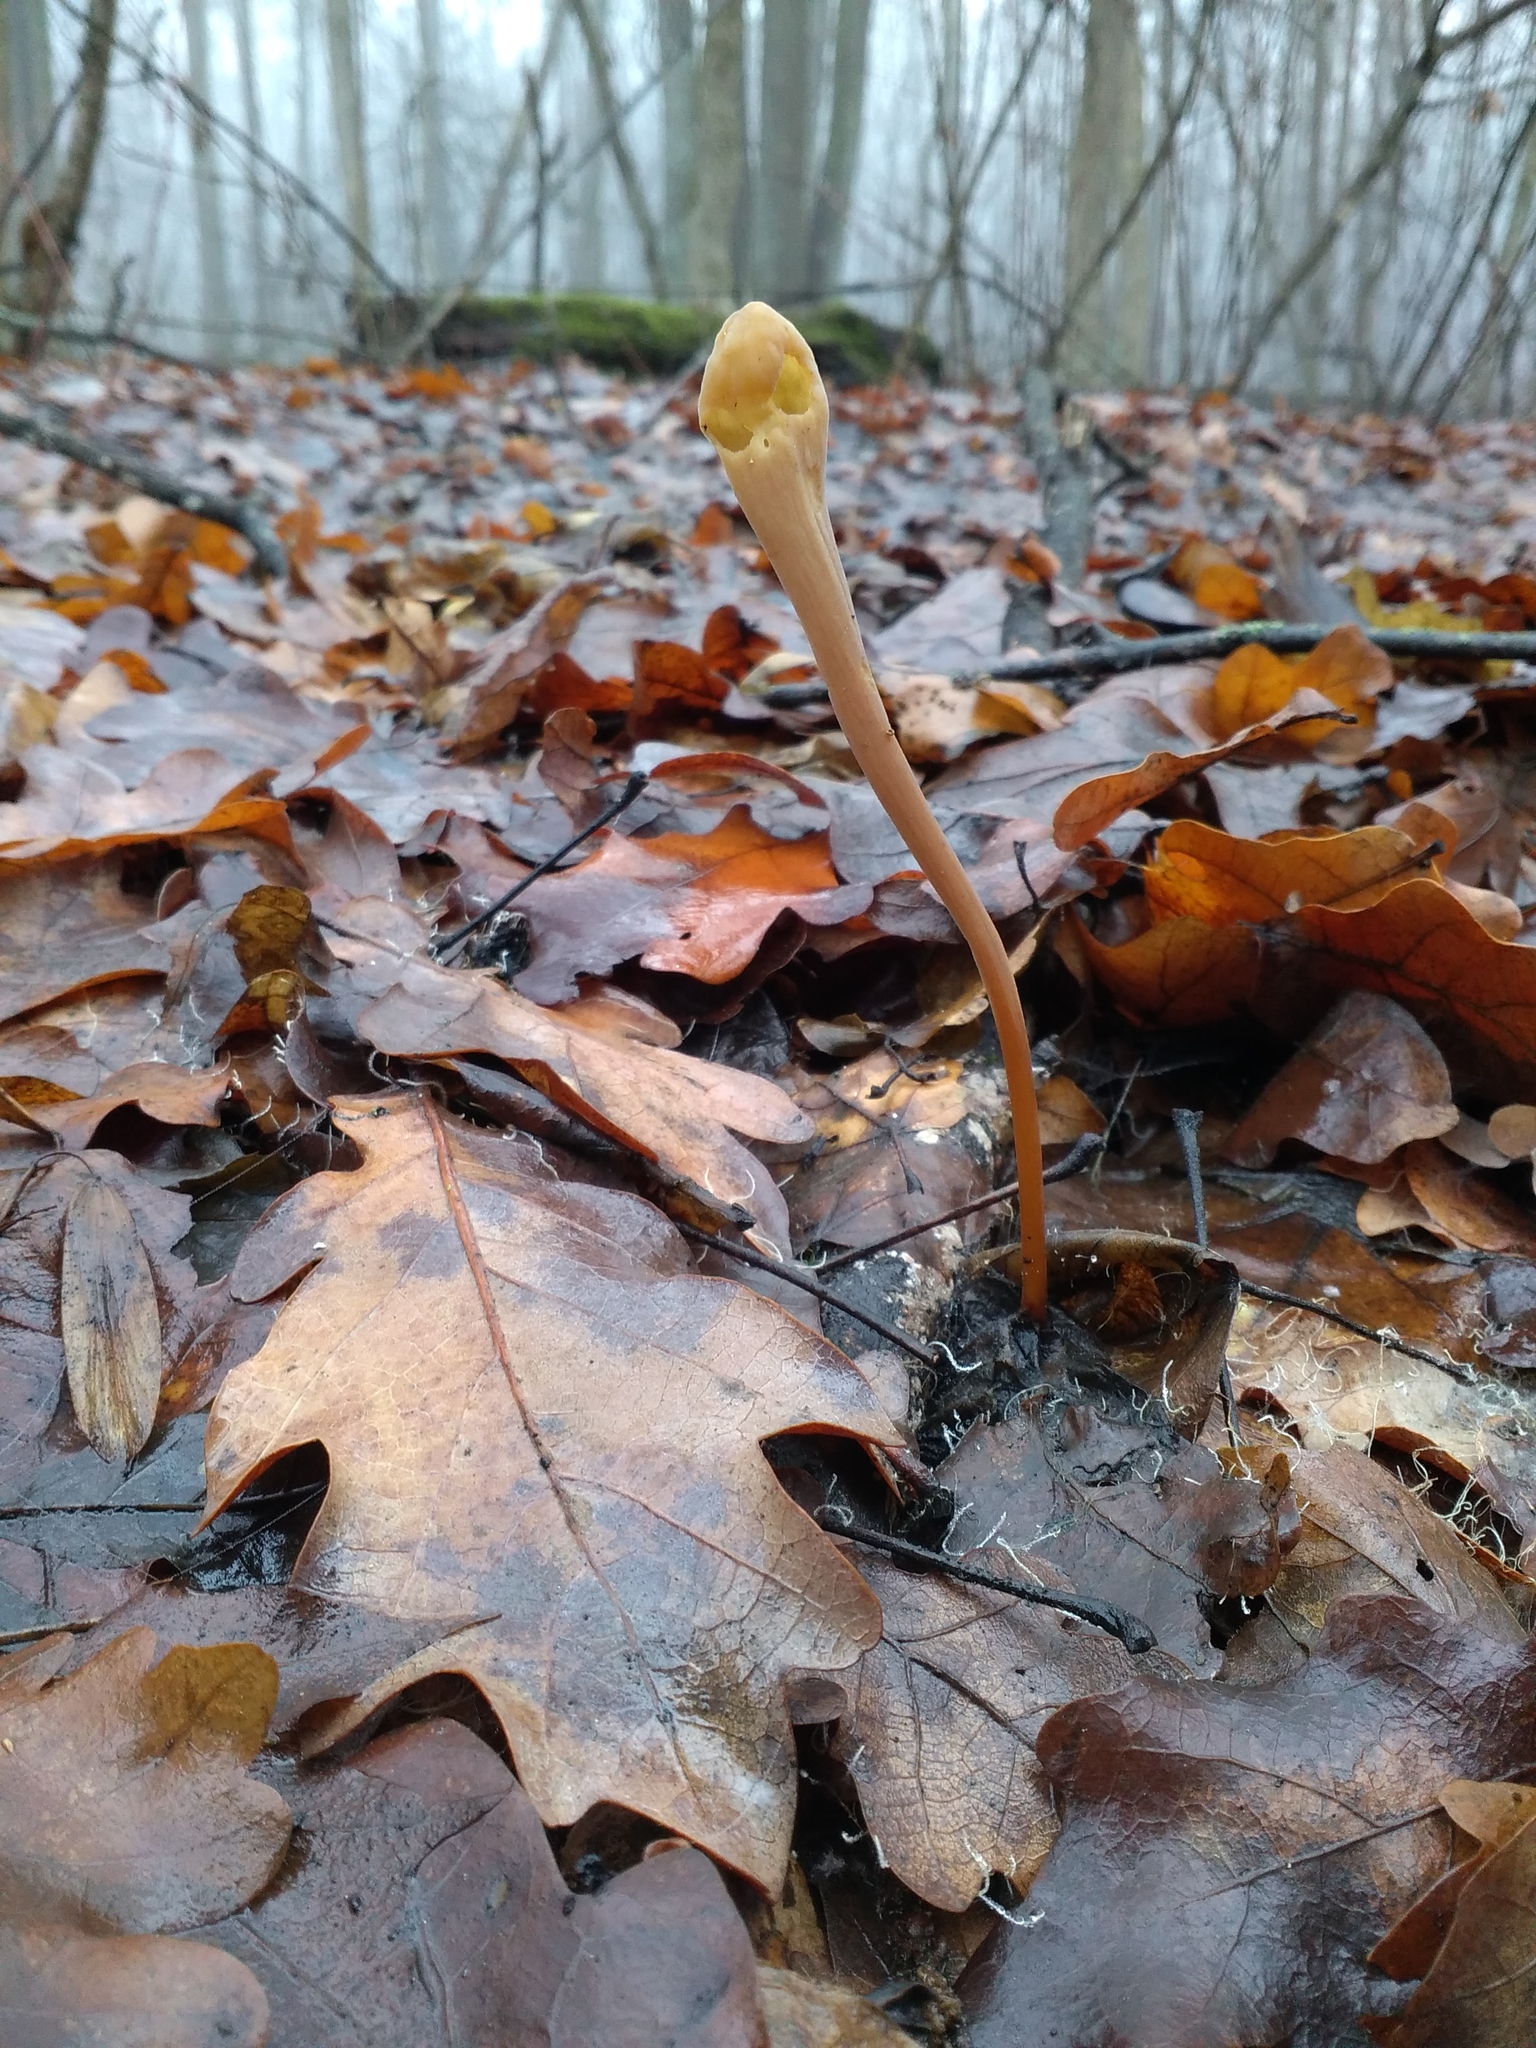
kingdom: Fungi
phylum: Basidiomycota
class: Agaricomycetes
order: Agaricales
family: Typhulaceae
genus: Typhula
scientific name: Typhula fistulosa
